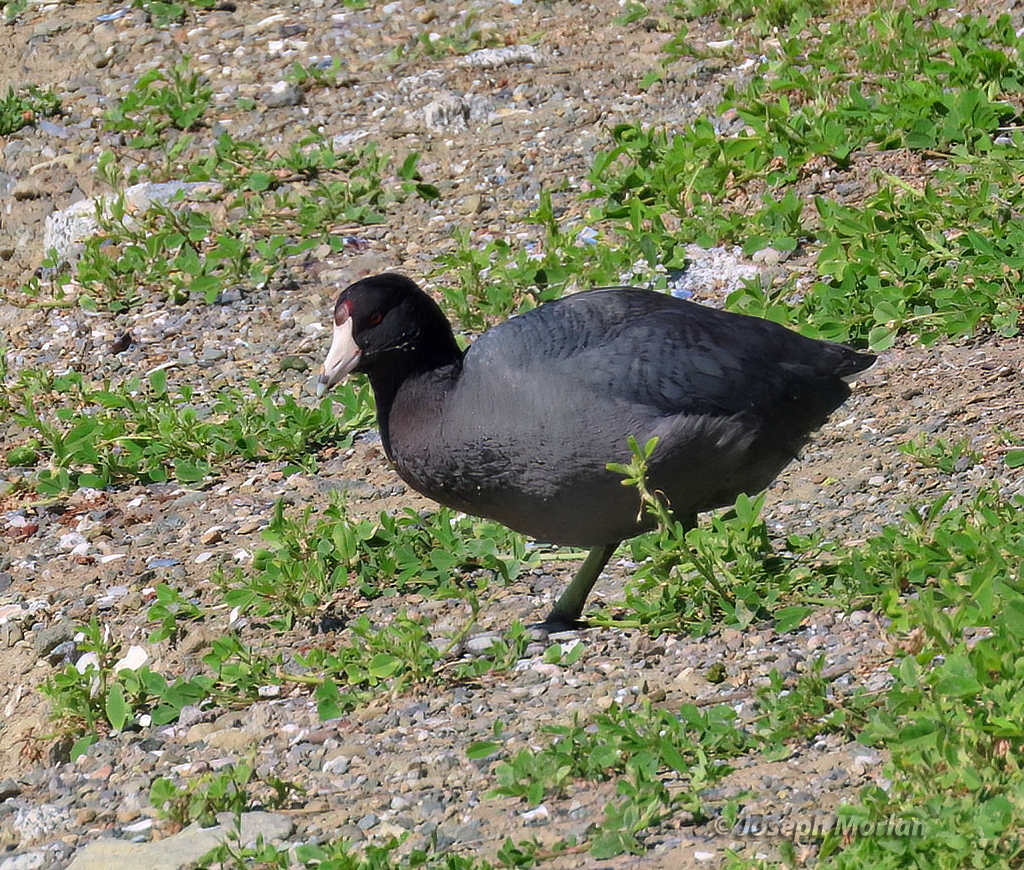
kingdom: Animalia
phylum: Chordata
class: Aves
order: Gruiformes
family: Rallidae
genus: Fulica
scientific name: Fulica americana
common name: American coot
